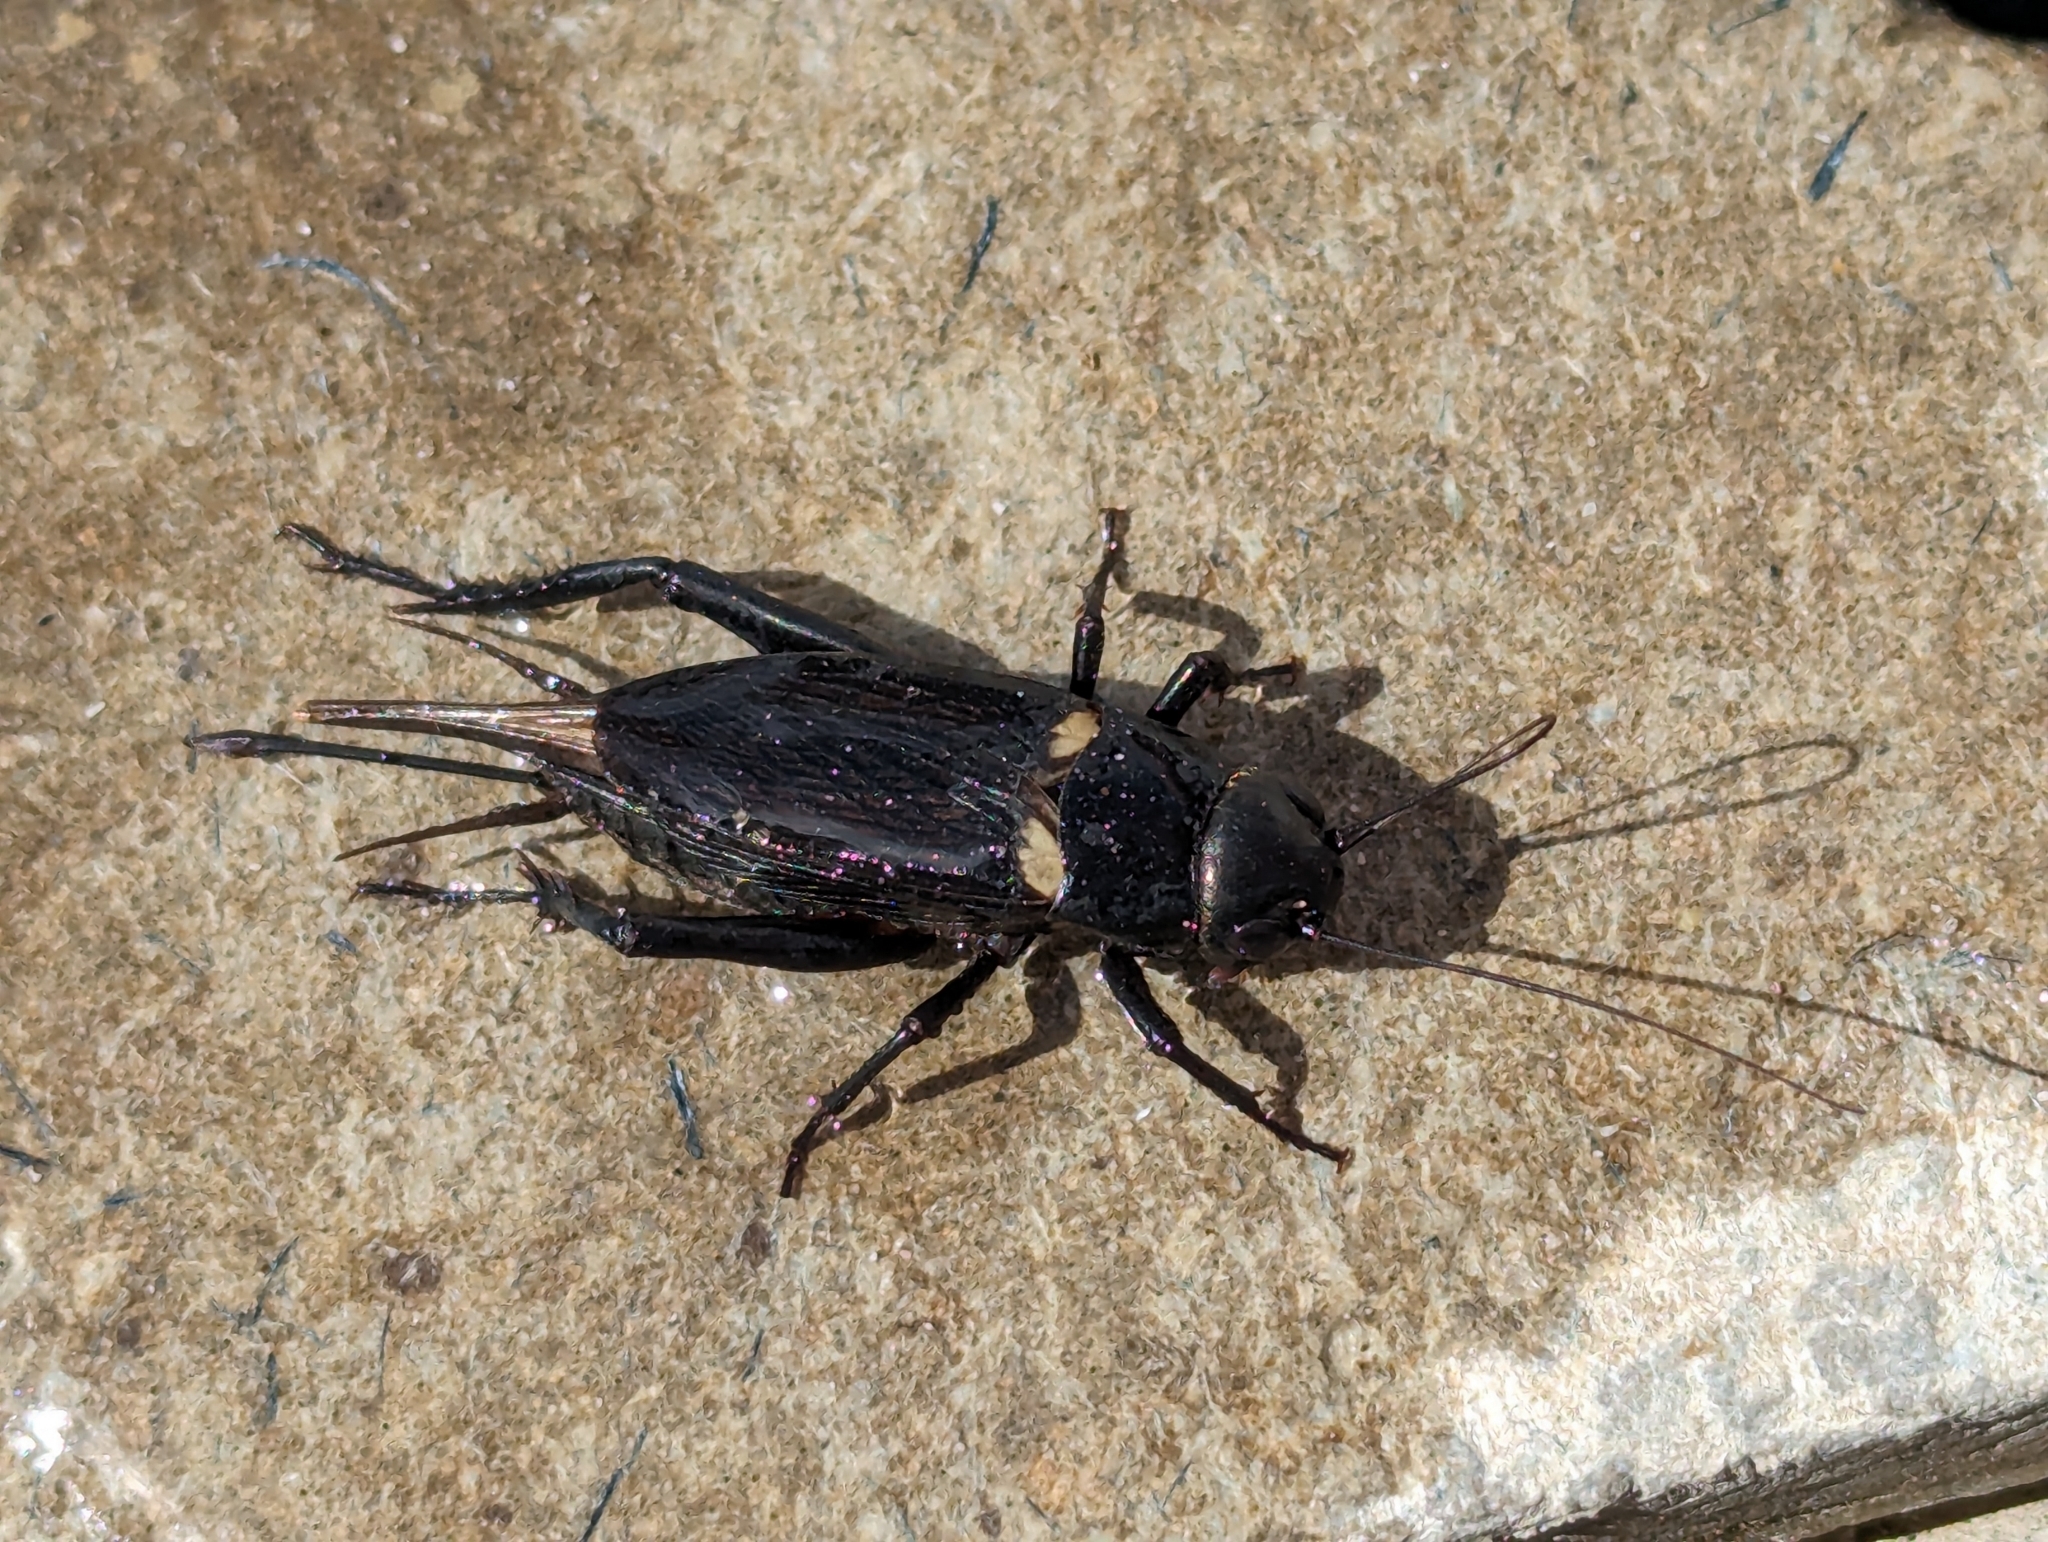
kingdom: Animalia
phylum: Arthropoda
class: Insecta
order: Orthoptera
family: Gryllidae
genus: Gryllus
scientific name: Gryllus bimaculatus
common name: Two-spotted cricket
